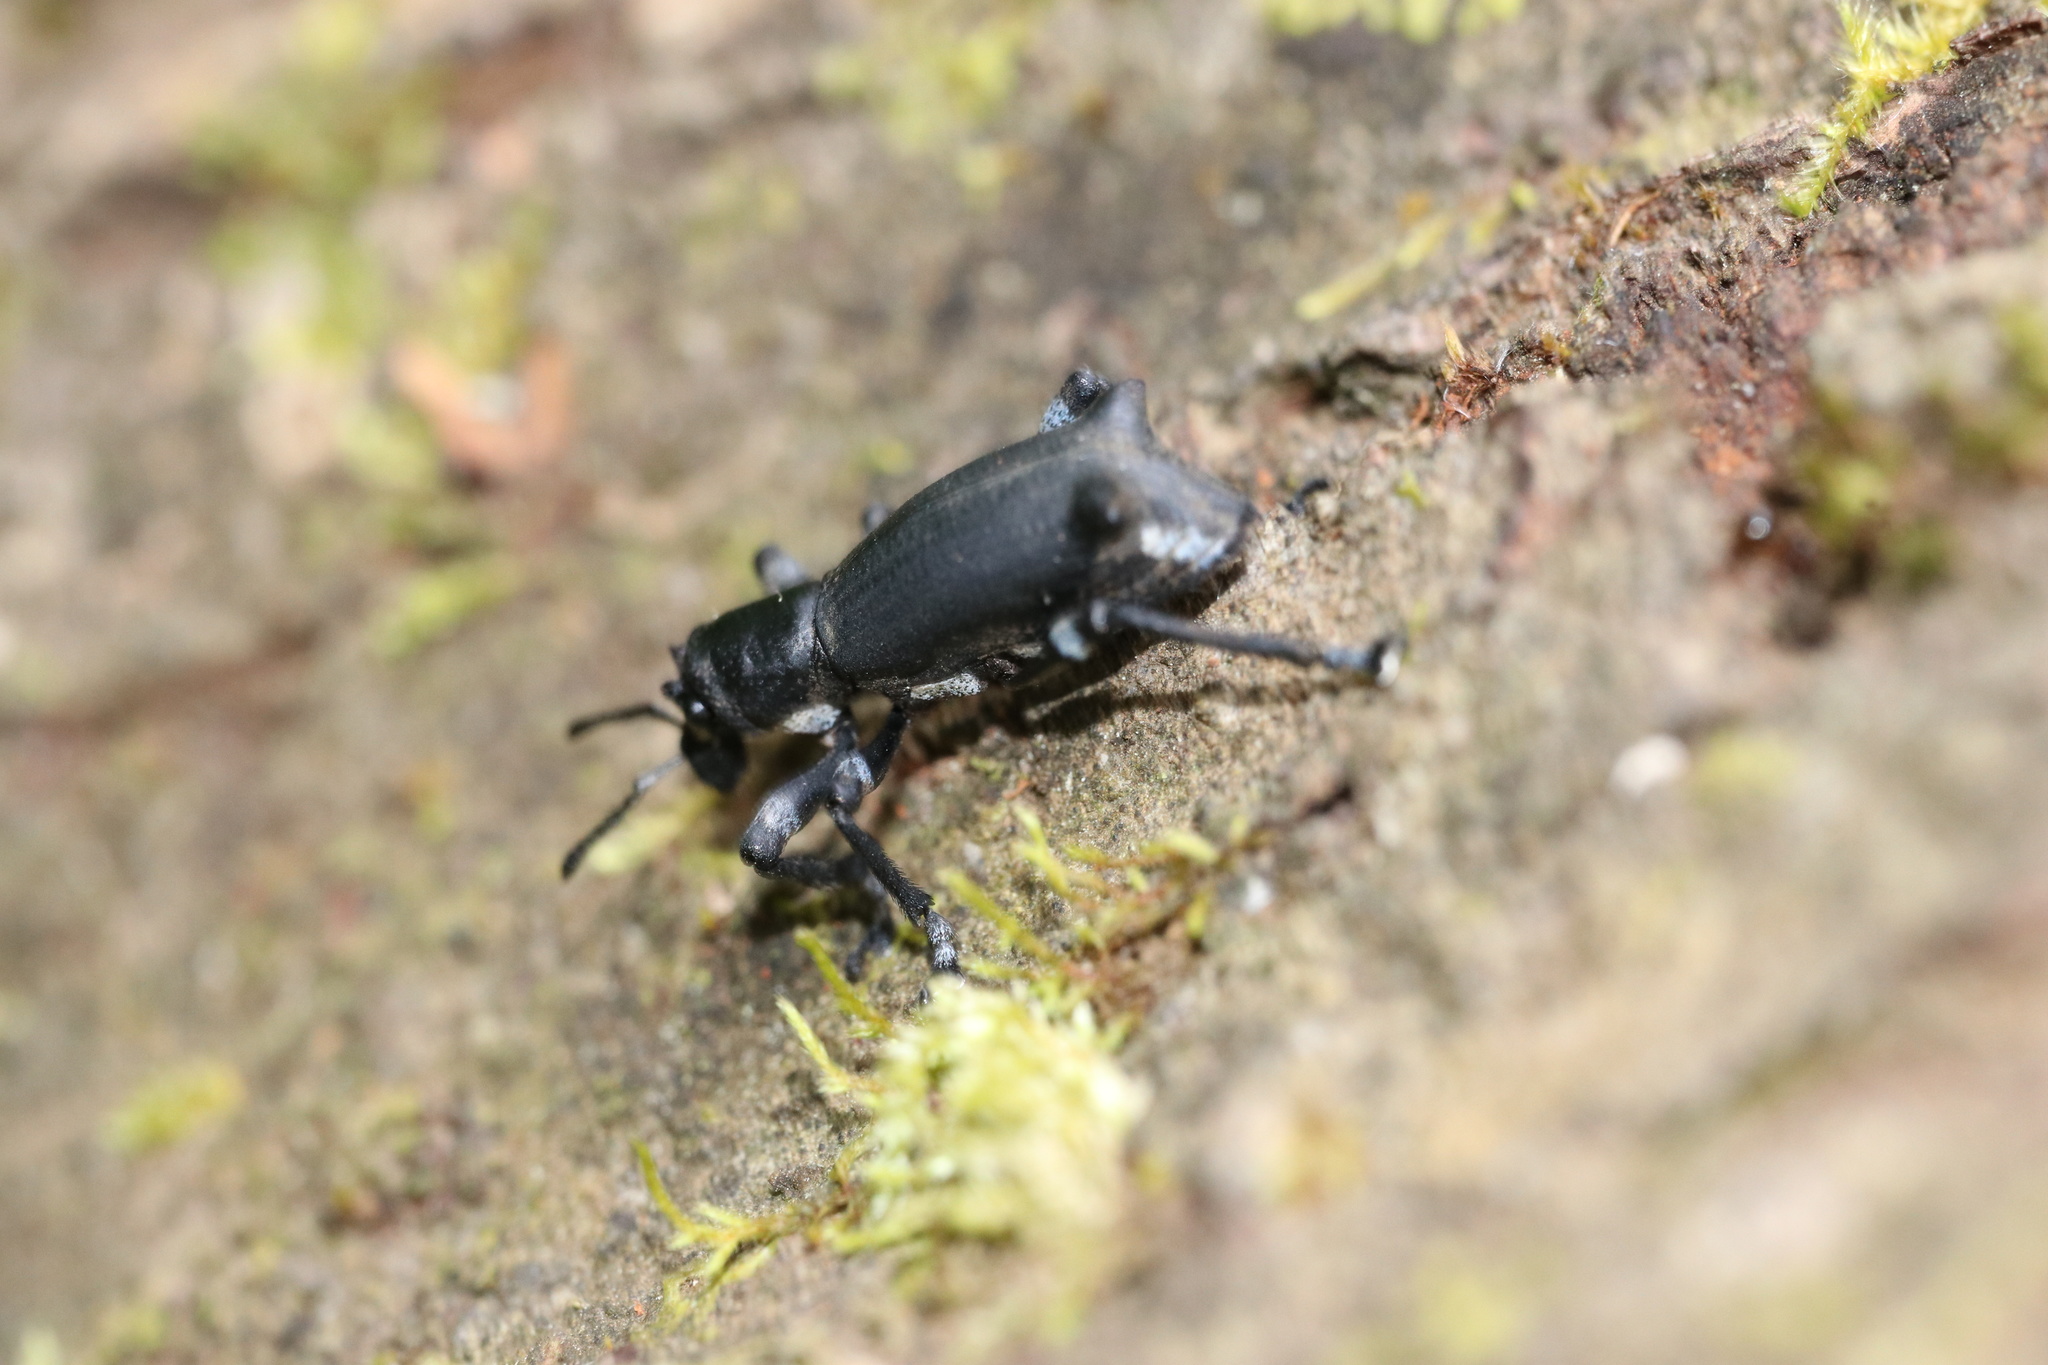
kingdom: Animalia
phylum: Arthropoda
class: Insecta
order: Coleoptera
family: Curculionidae
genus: Aegorhinus
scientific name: Aegorhinus
